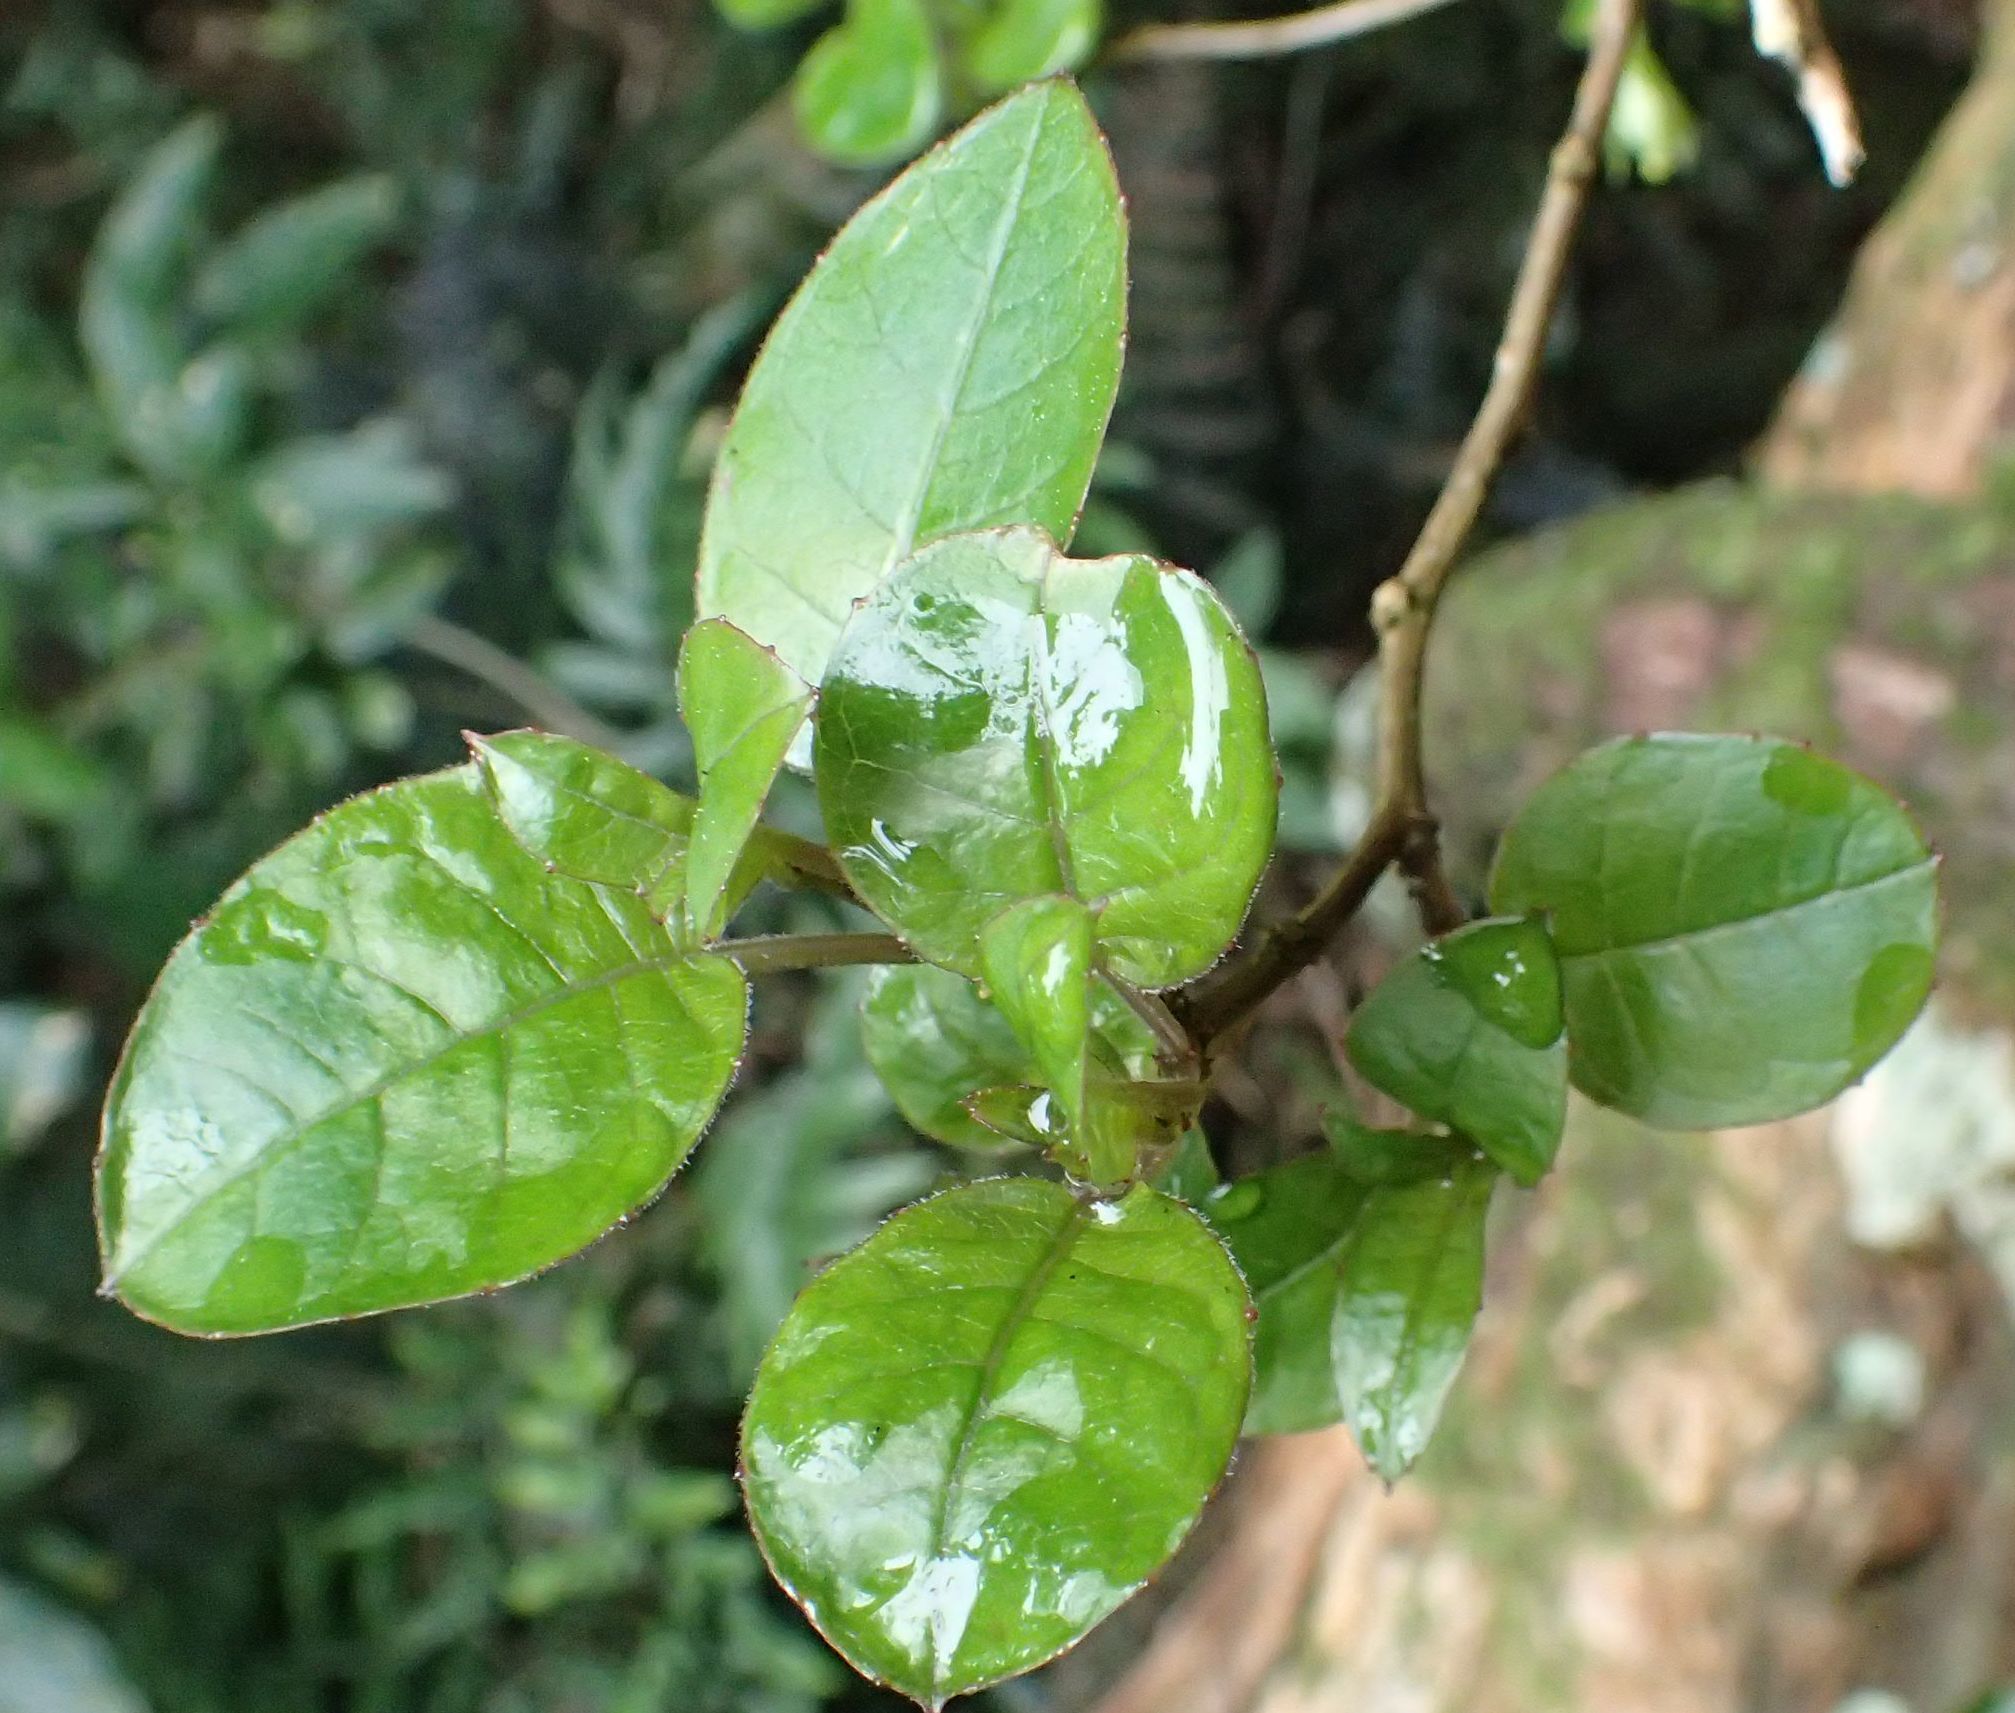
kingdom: Plantae
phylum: Tracheophyta
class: Magnoliopsida
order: Myrtales
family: Onagraceae
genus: Fuchsia
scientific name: Fuchsia colensoi
